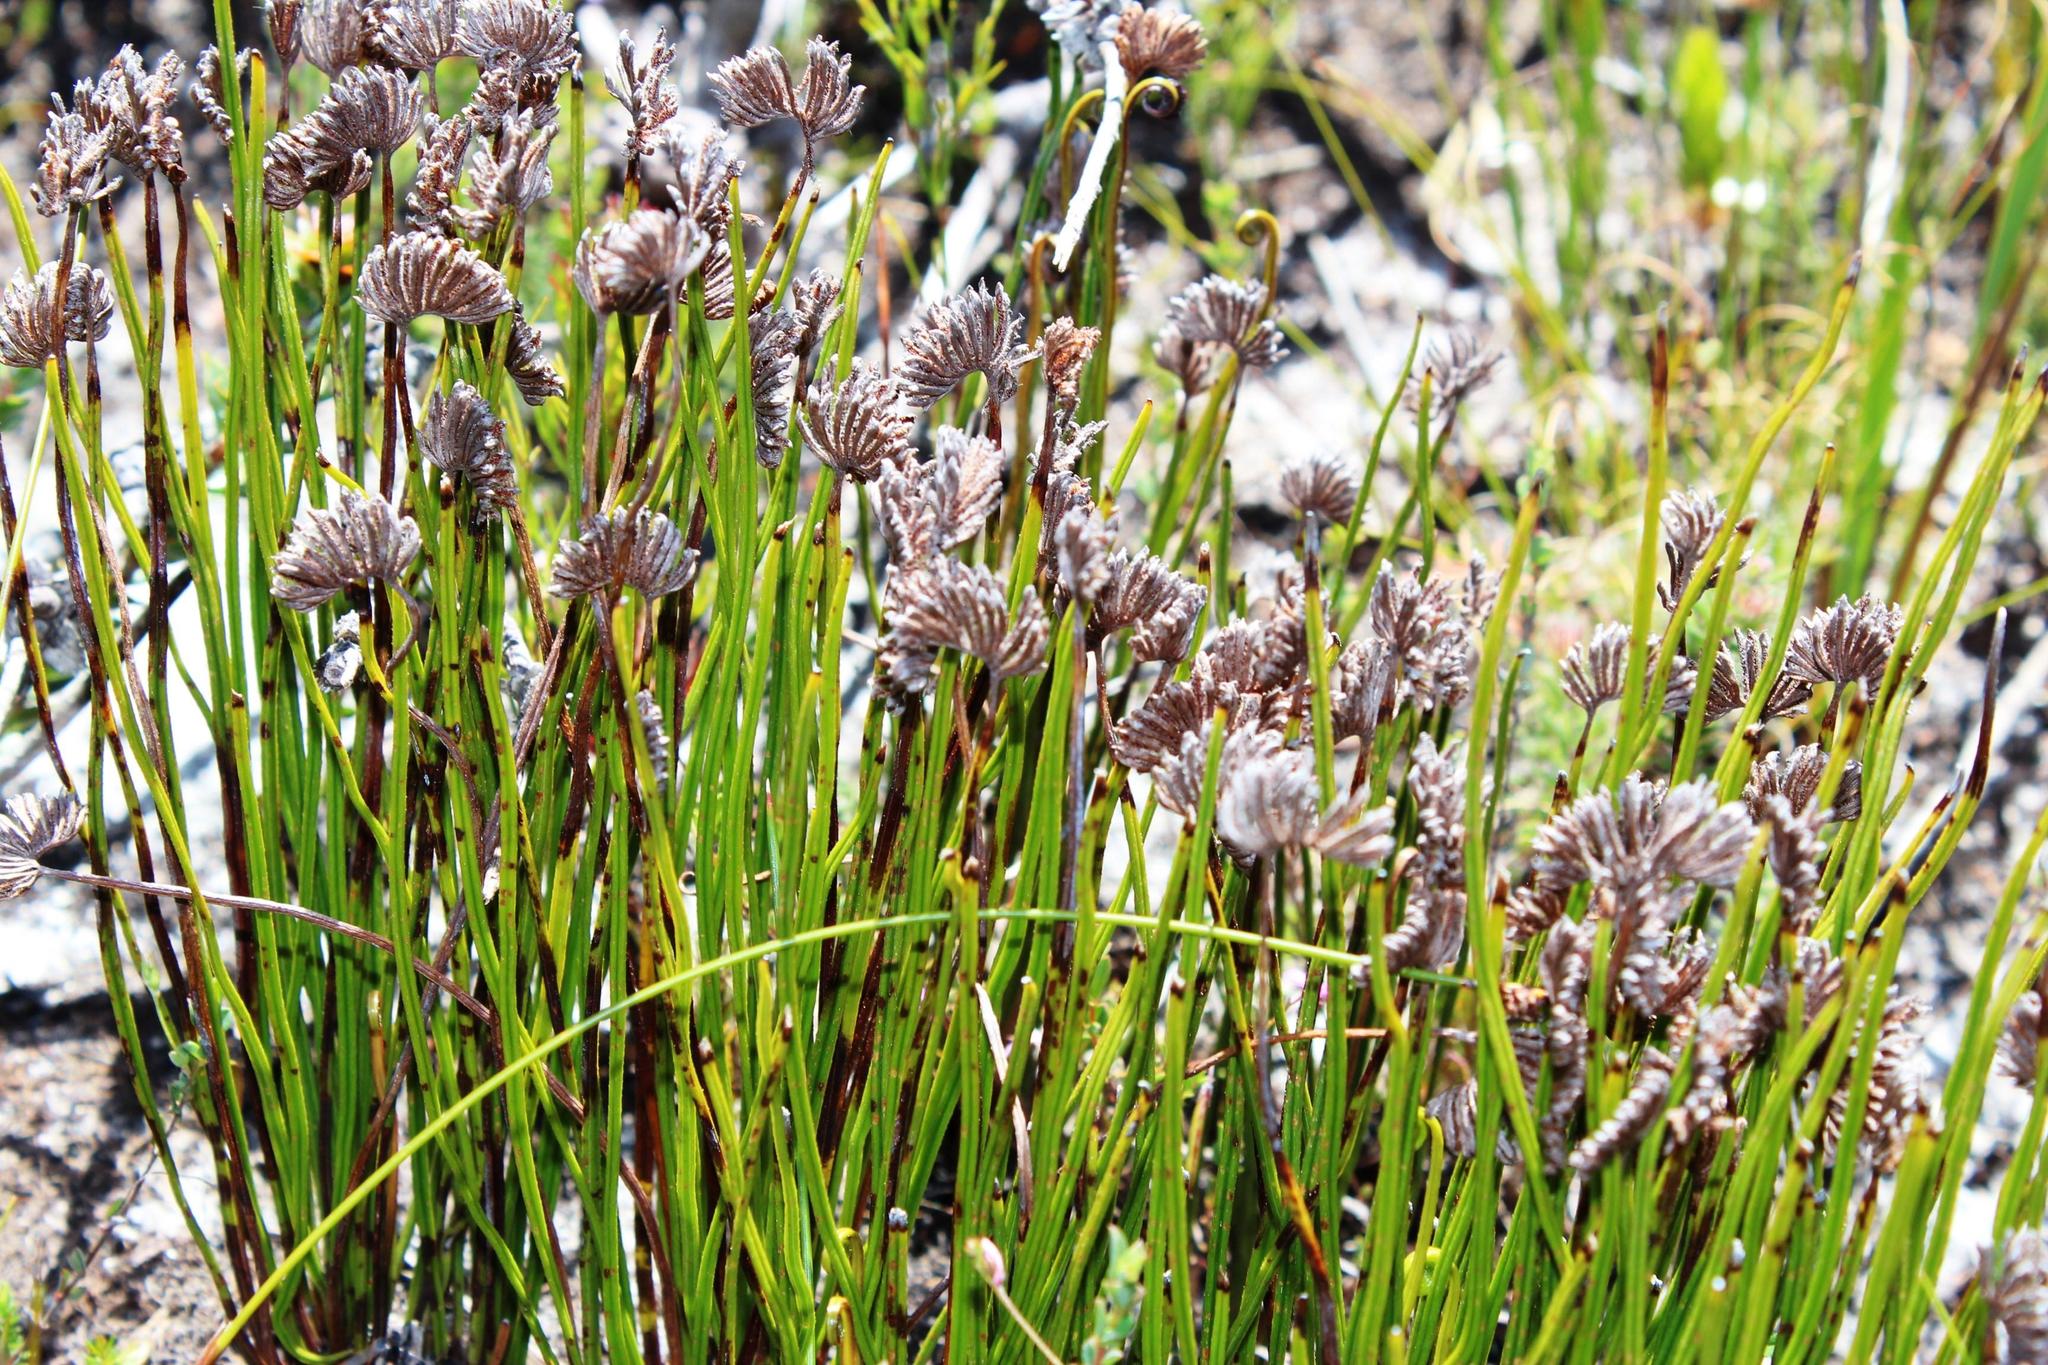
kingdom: Plantae
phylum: Tracheophyta
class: Polypodiopsida
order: Schizaeales
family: Schizaeaceae
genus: Schizaea
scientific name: Schizaea pectinata
